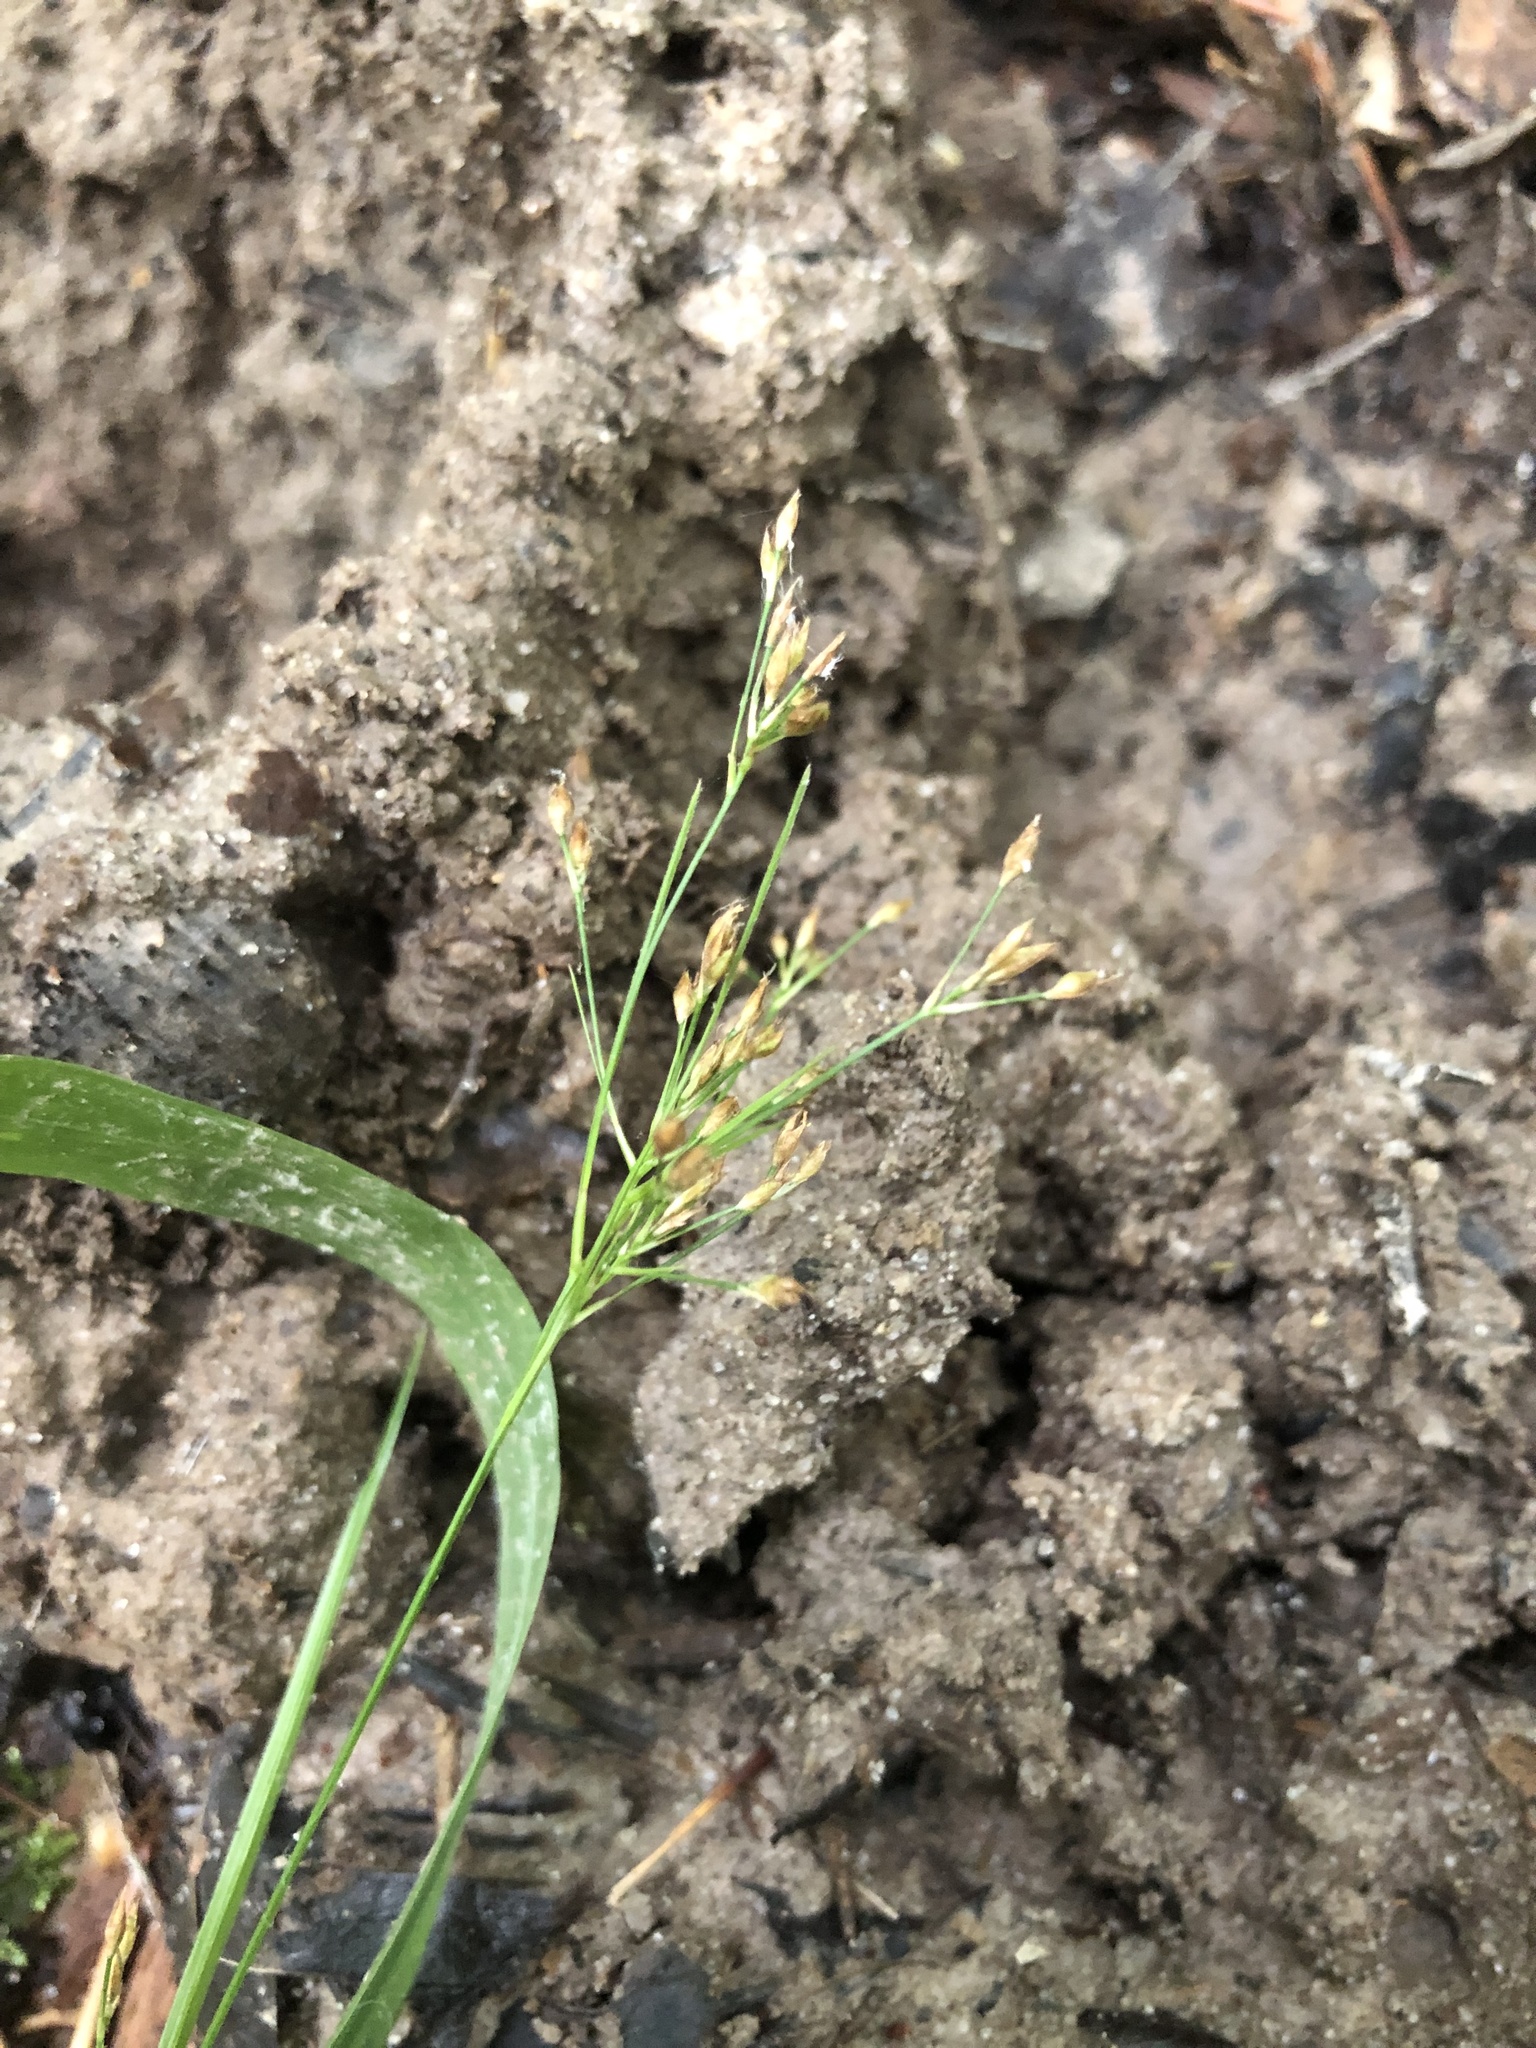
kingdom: Plantae
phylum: Tracheophyta
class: Liliopsida
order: Poales
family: Cyperaceae
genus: Rhynchospora
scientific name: Rhynchospora mixta
